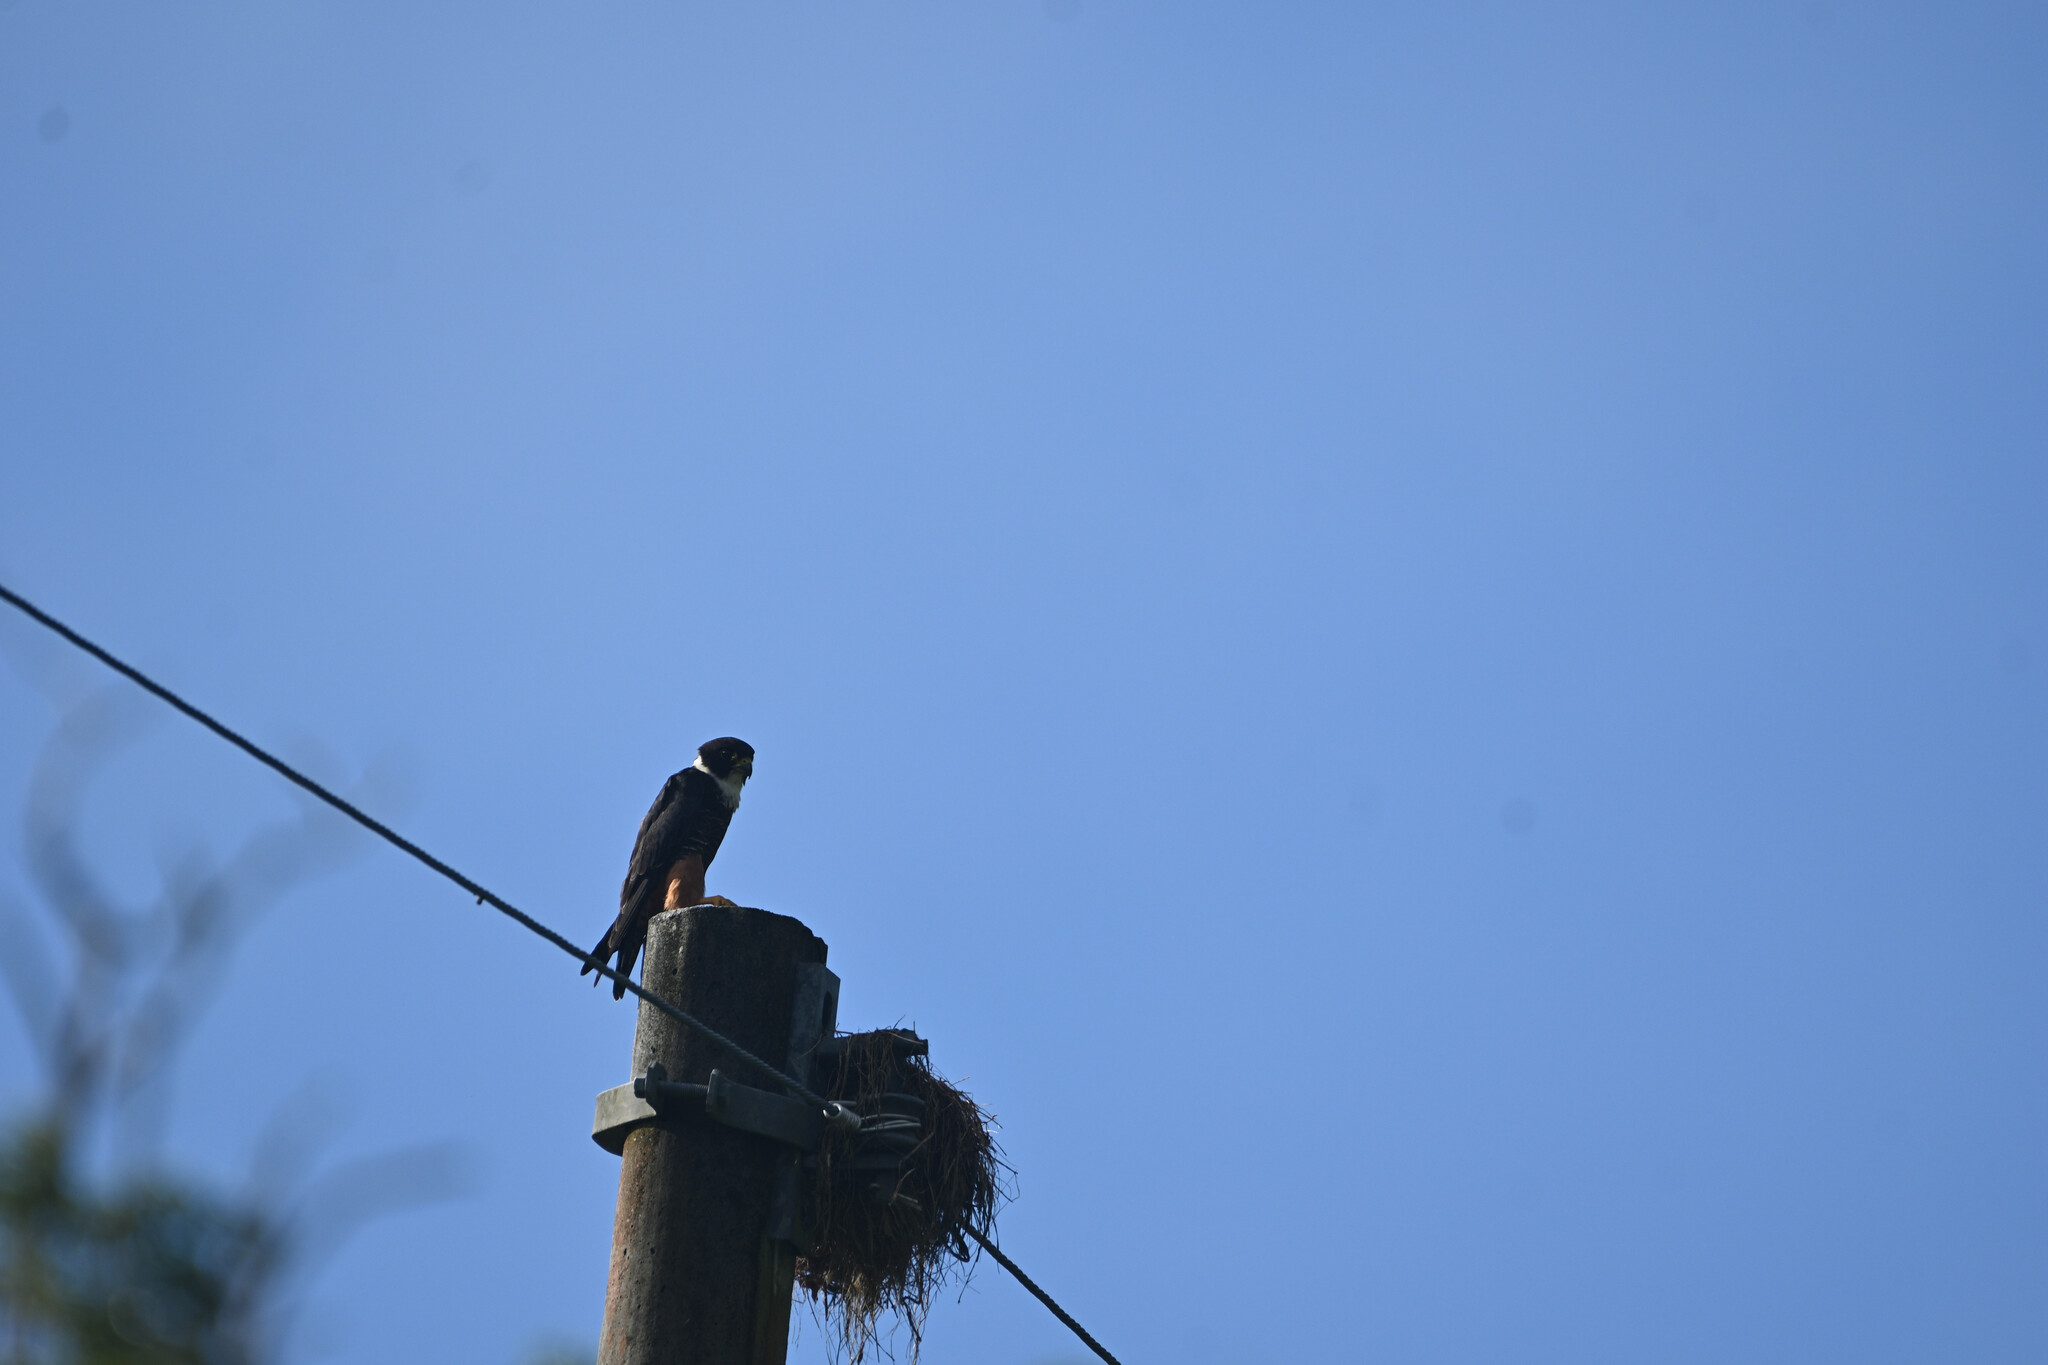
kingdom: Animalia
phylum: Chordata
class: Aves
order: Falconiformes
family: Falconidae
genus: Falco
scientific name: Falco rufigularis
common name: Bat falcon
